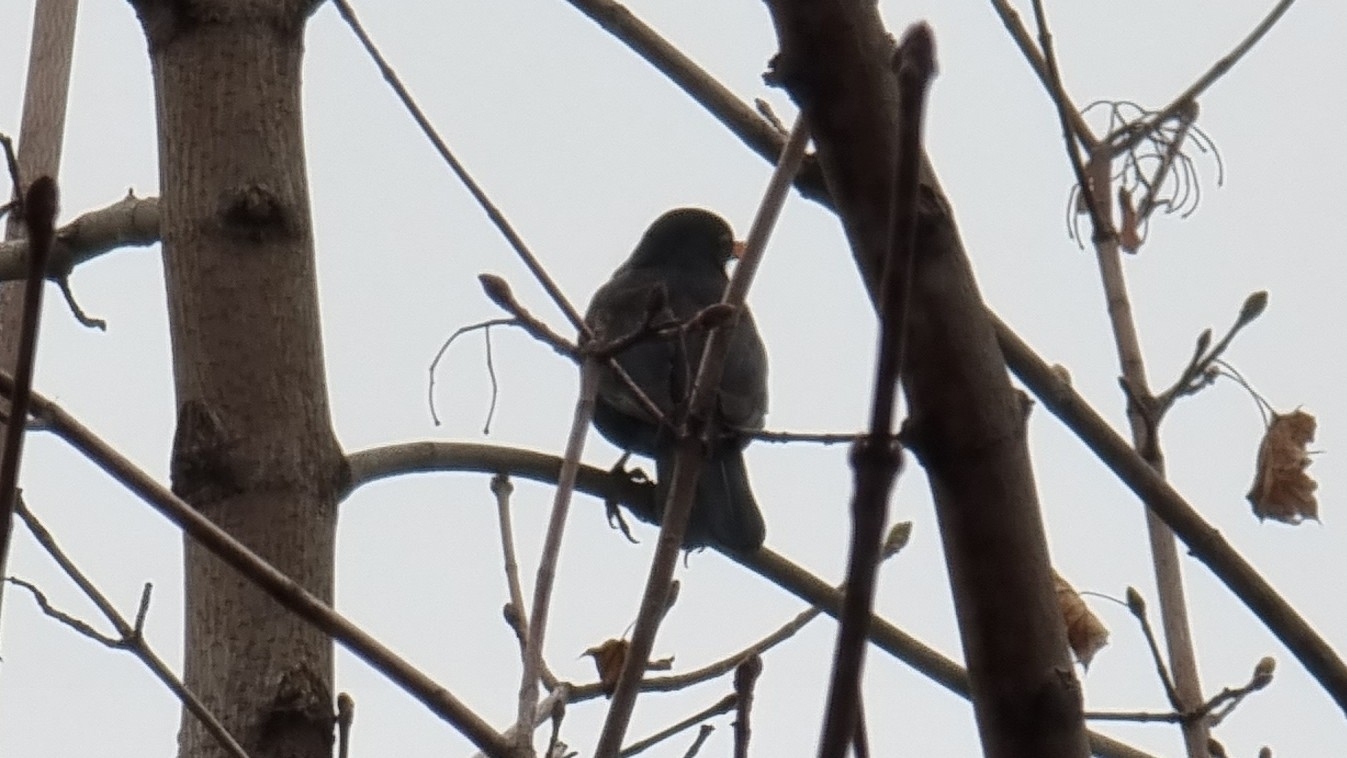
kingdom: Animalia
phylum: Chordata
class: Aves
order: Passeriformes
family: Turdidae
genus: Turdus
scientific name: Turdus merula
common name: Common blackbird
